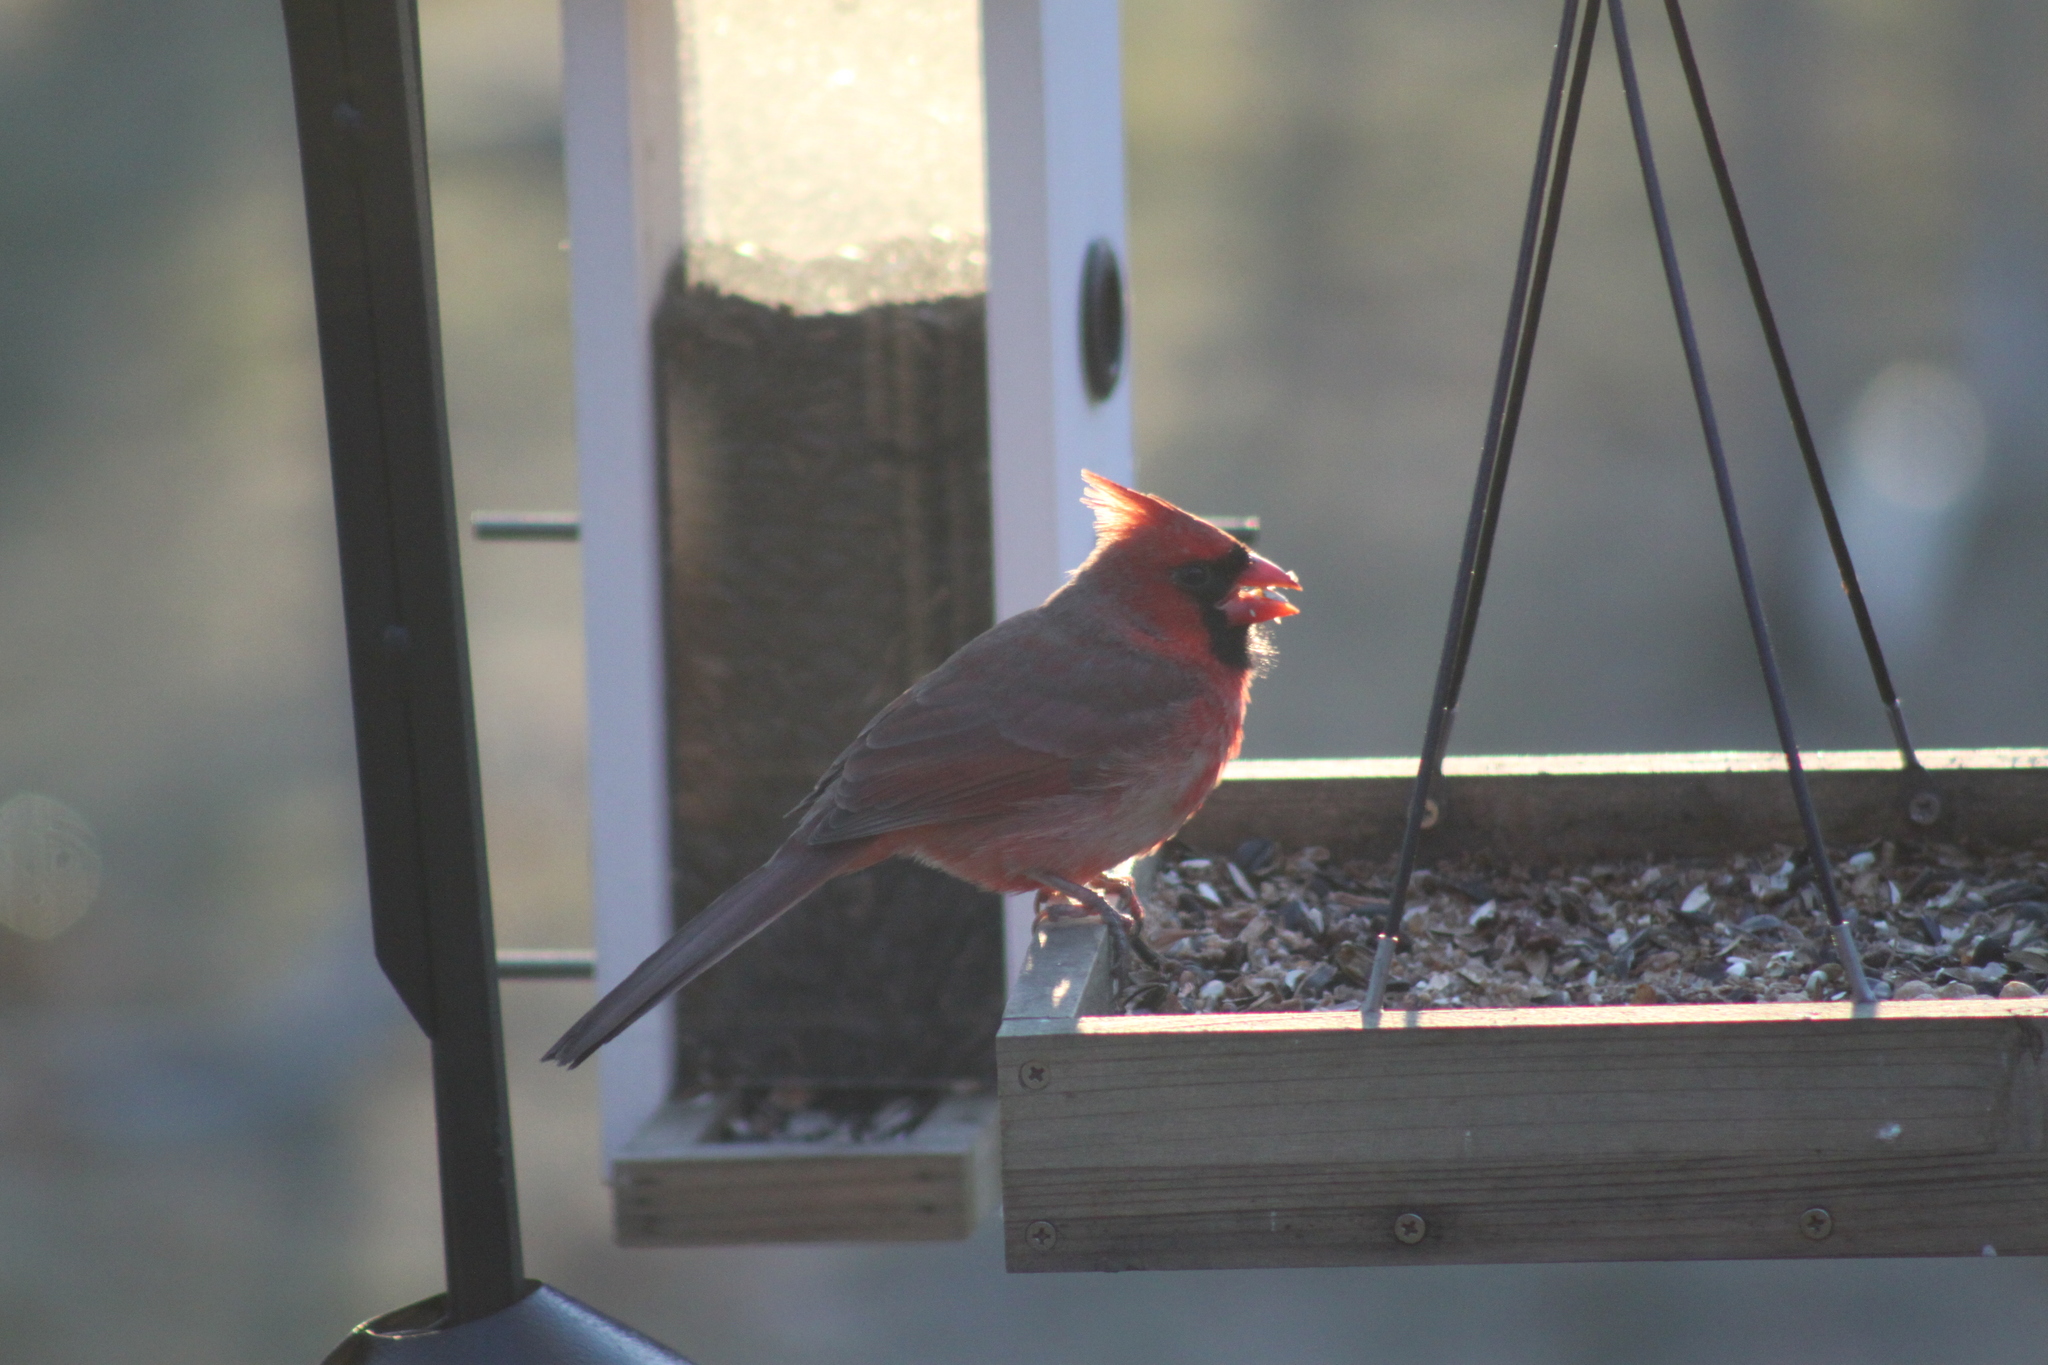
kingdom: Animalia
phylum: Chordata
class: Aves
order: Passeriformes
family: Cardinalidae
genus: Cardinalis
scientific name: Cardinalis cardinalis
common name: Northern cardinal
